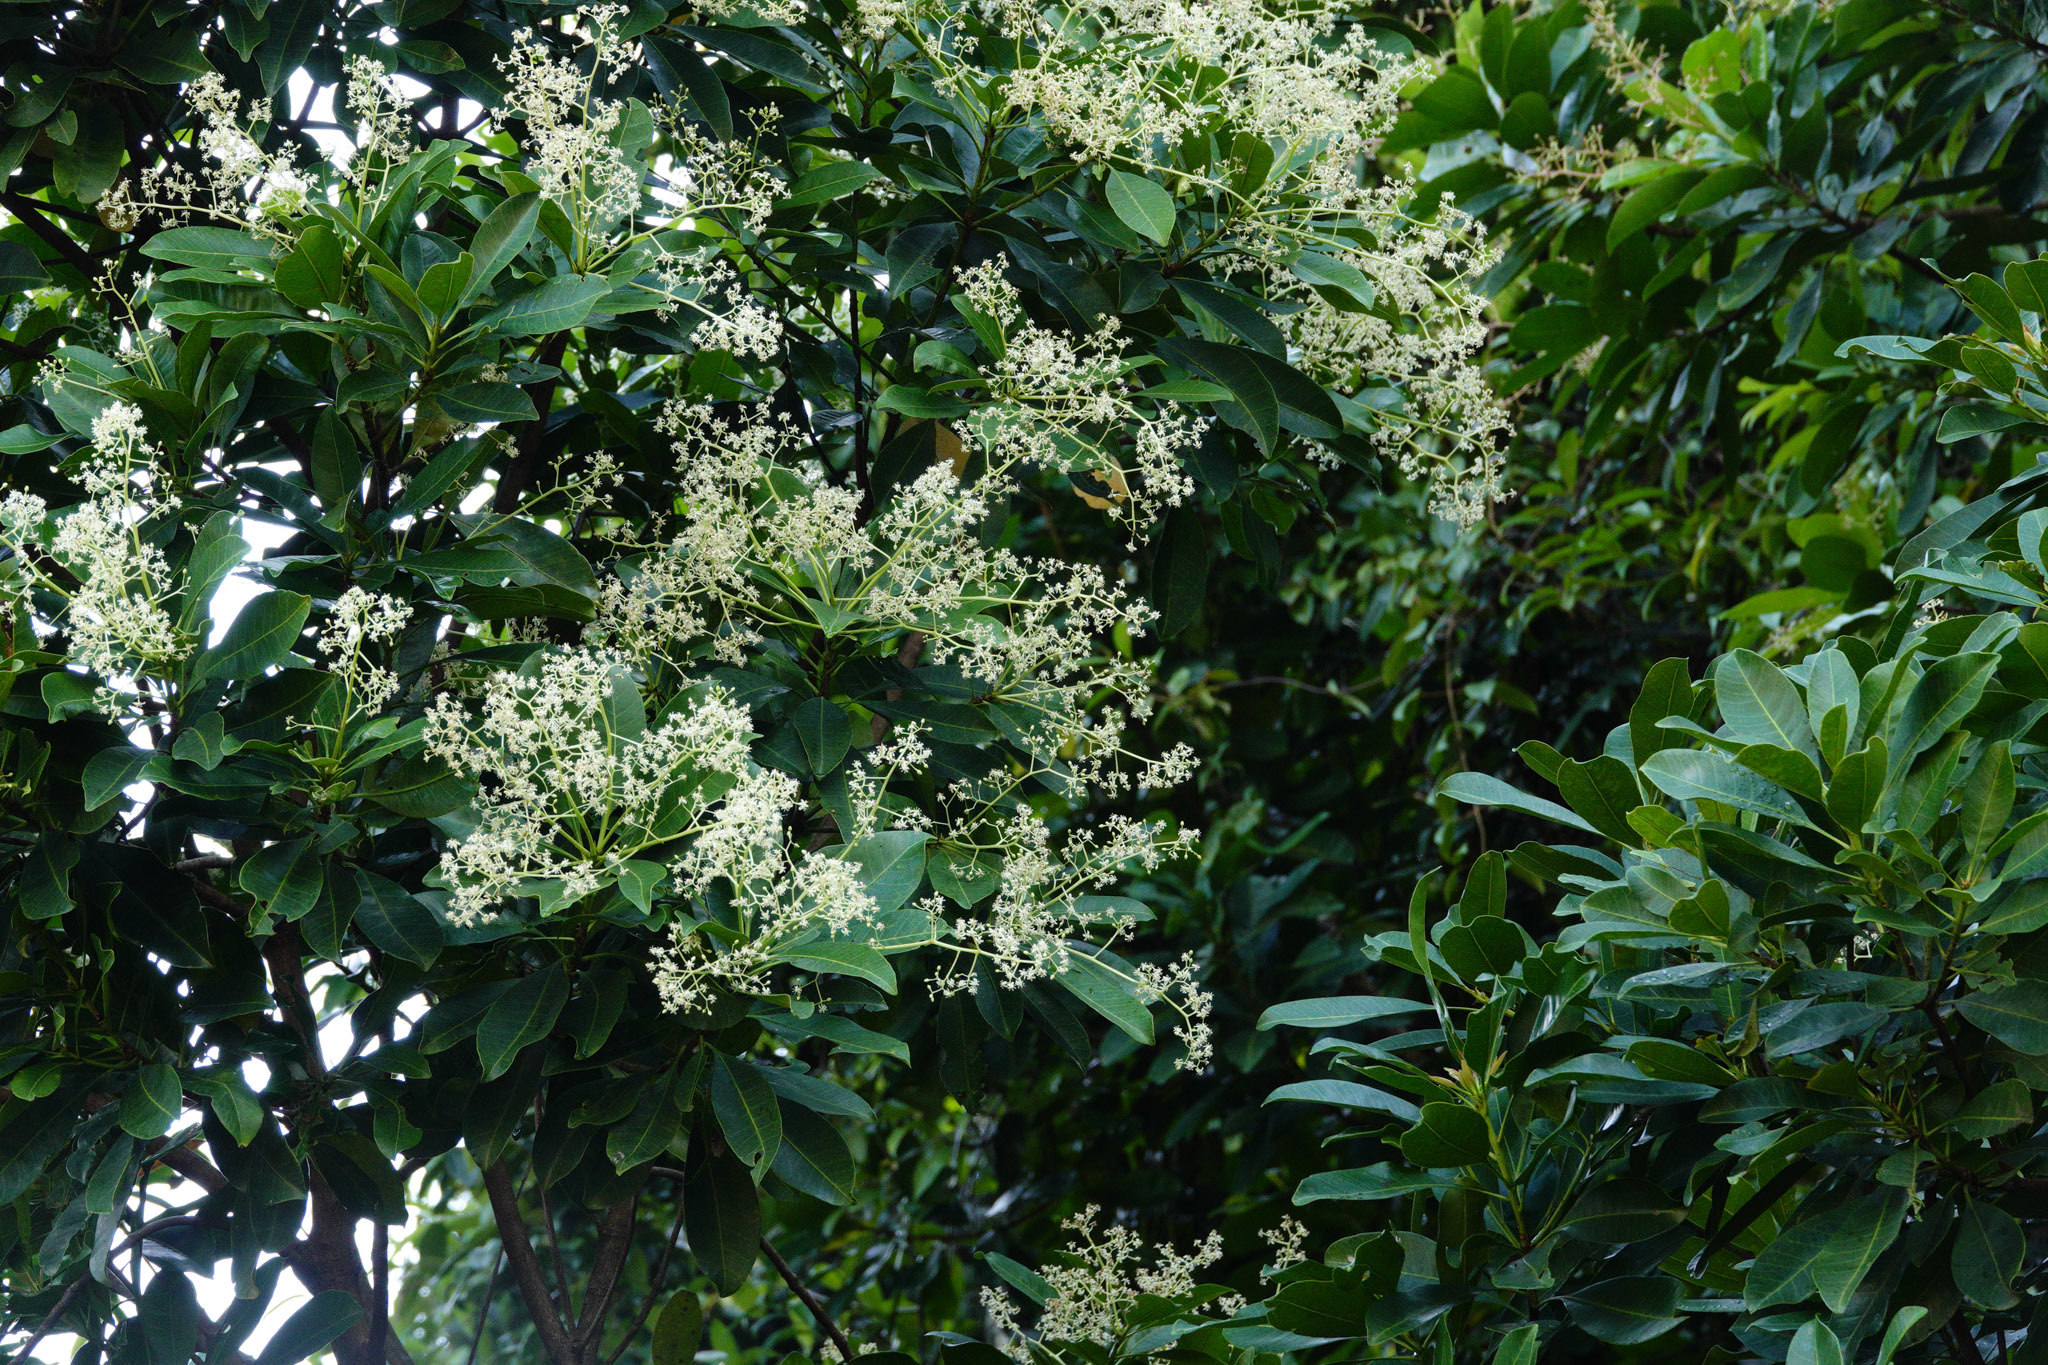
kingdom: Plantae
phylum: Tracheophyta
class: Magnoliopsida
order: Sapindales
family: Anacardiaceae
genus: Buchanania
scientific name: Buchanania arborescens
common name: Sparrow’s mango
